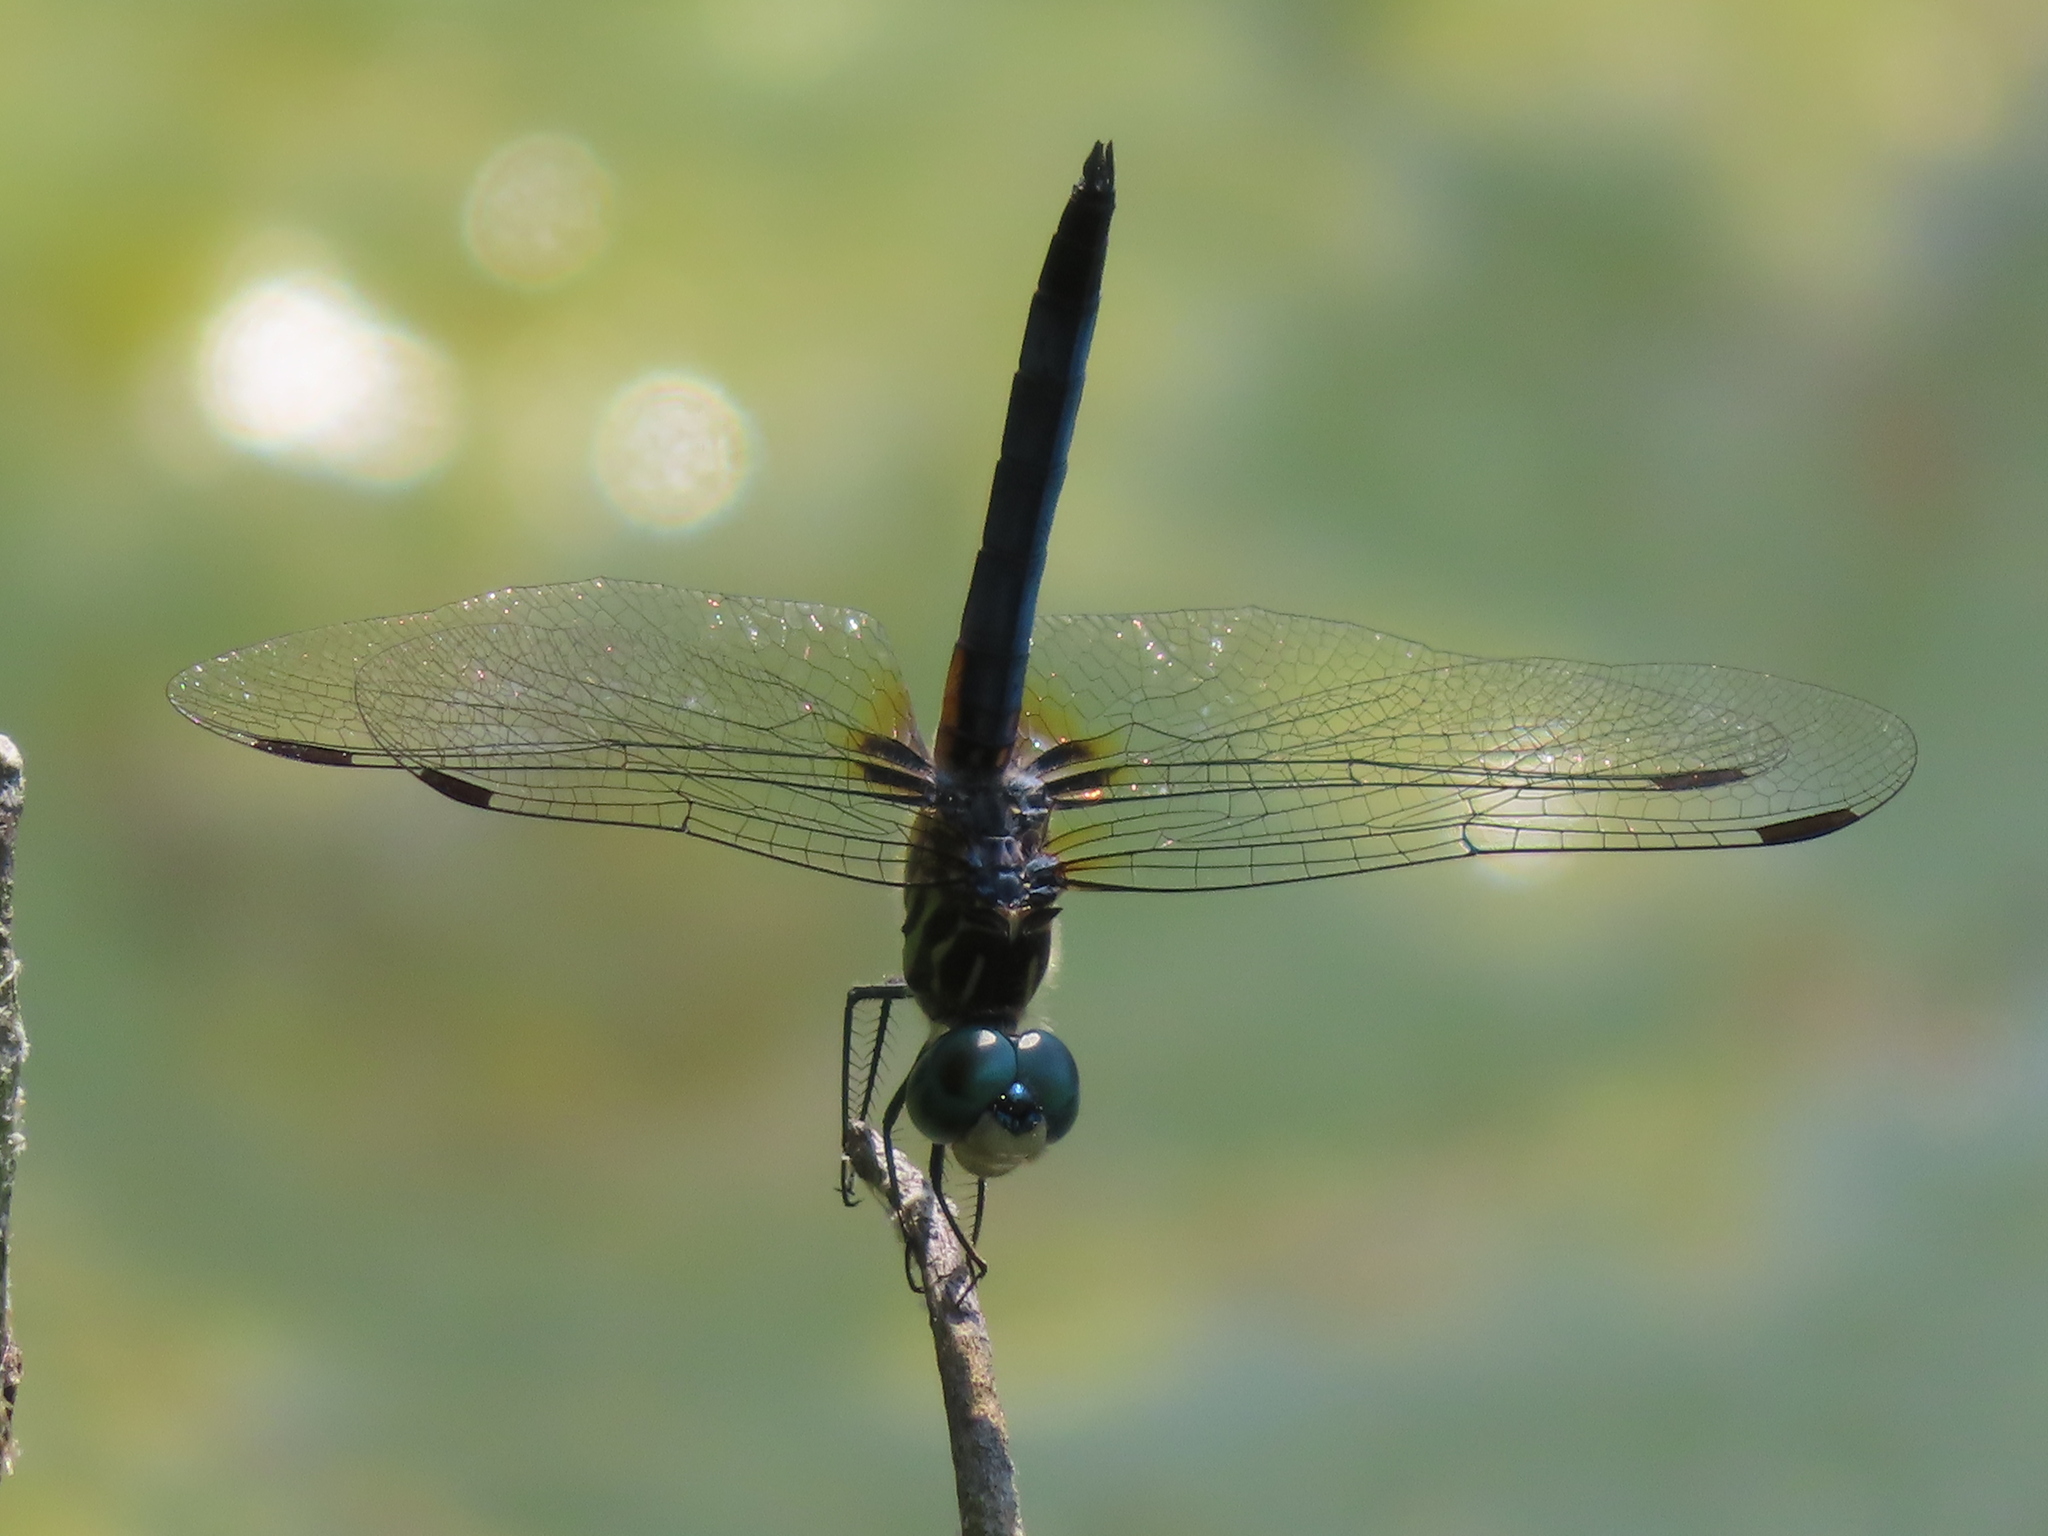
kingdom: Animalia
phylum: Arthropoda
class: Insecta
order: Odonata
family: Libellulidae
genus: Pachydiplax
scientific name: Pachydiplax longipennis
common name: Blue dasher
